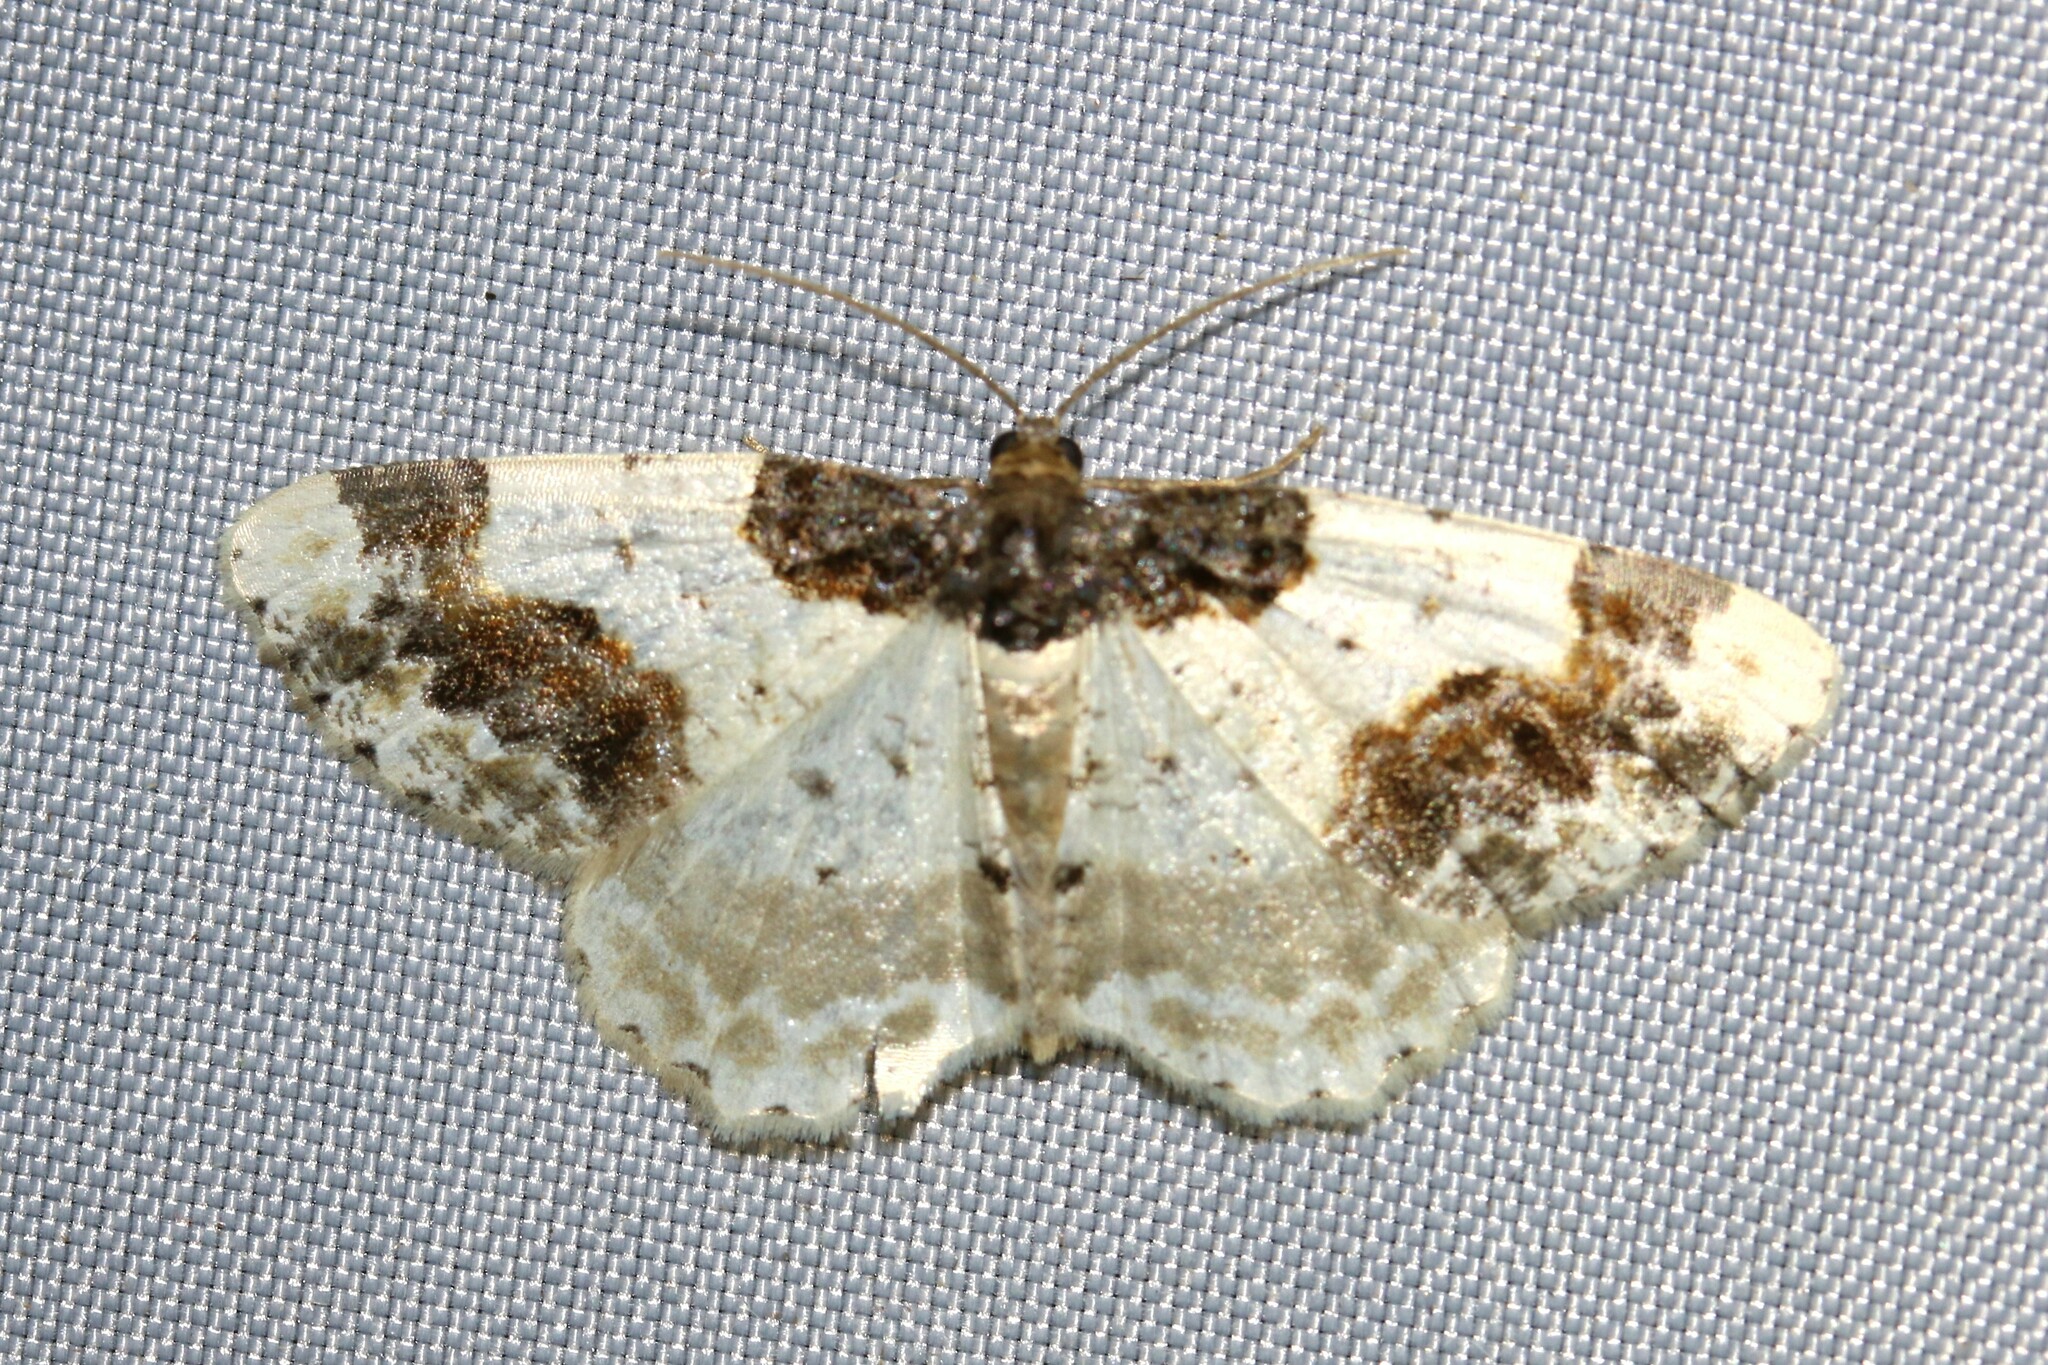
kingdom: Animalia
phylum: Arthropoda
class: Insecta
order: Lepidoptera
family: Geometridae
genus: Ligdia
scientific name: Ligdia adustata
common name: Scorched carpet
